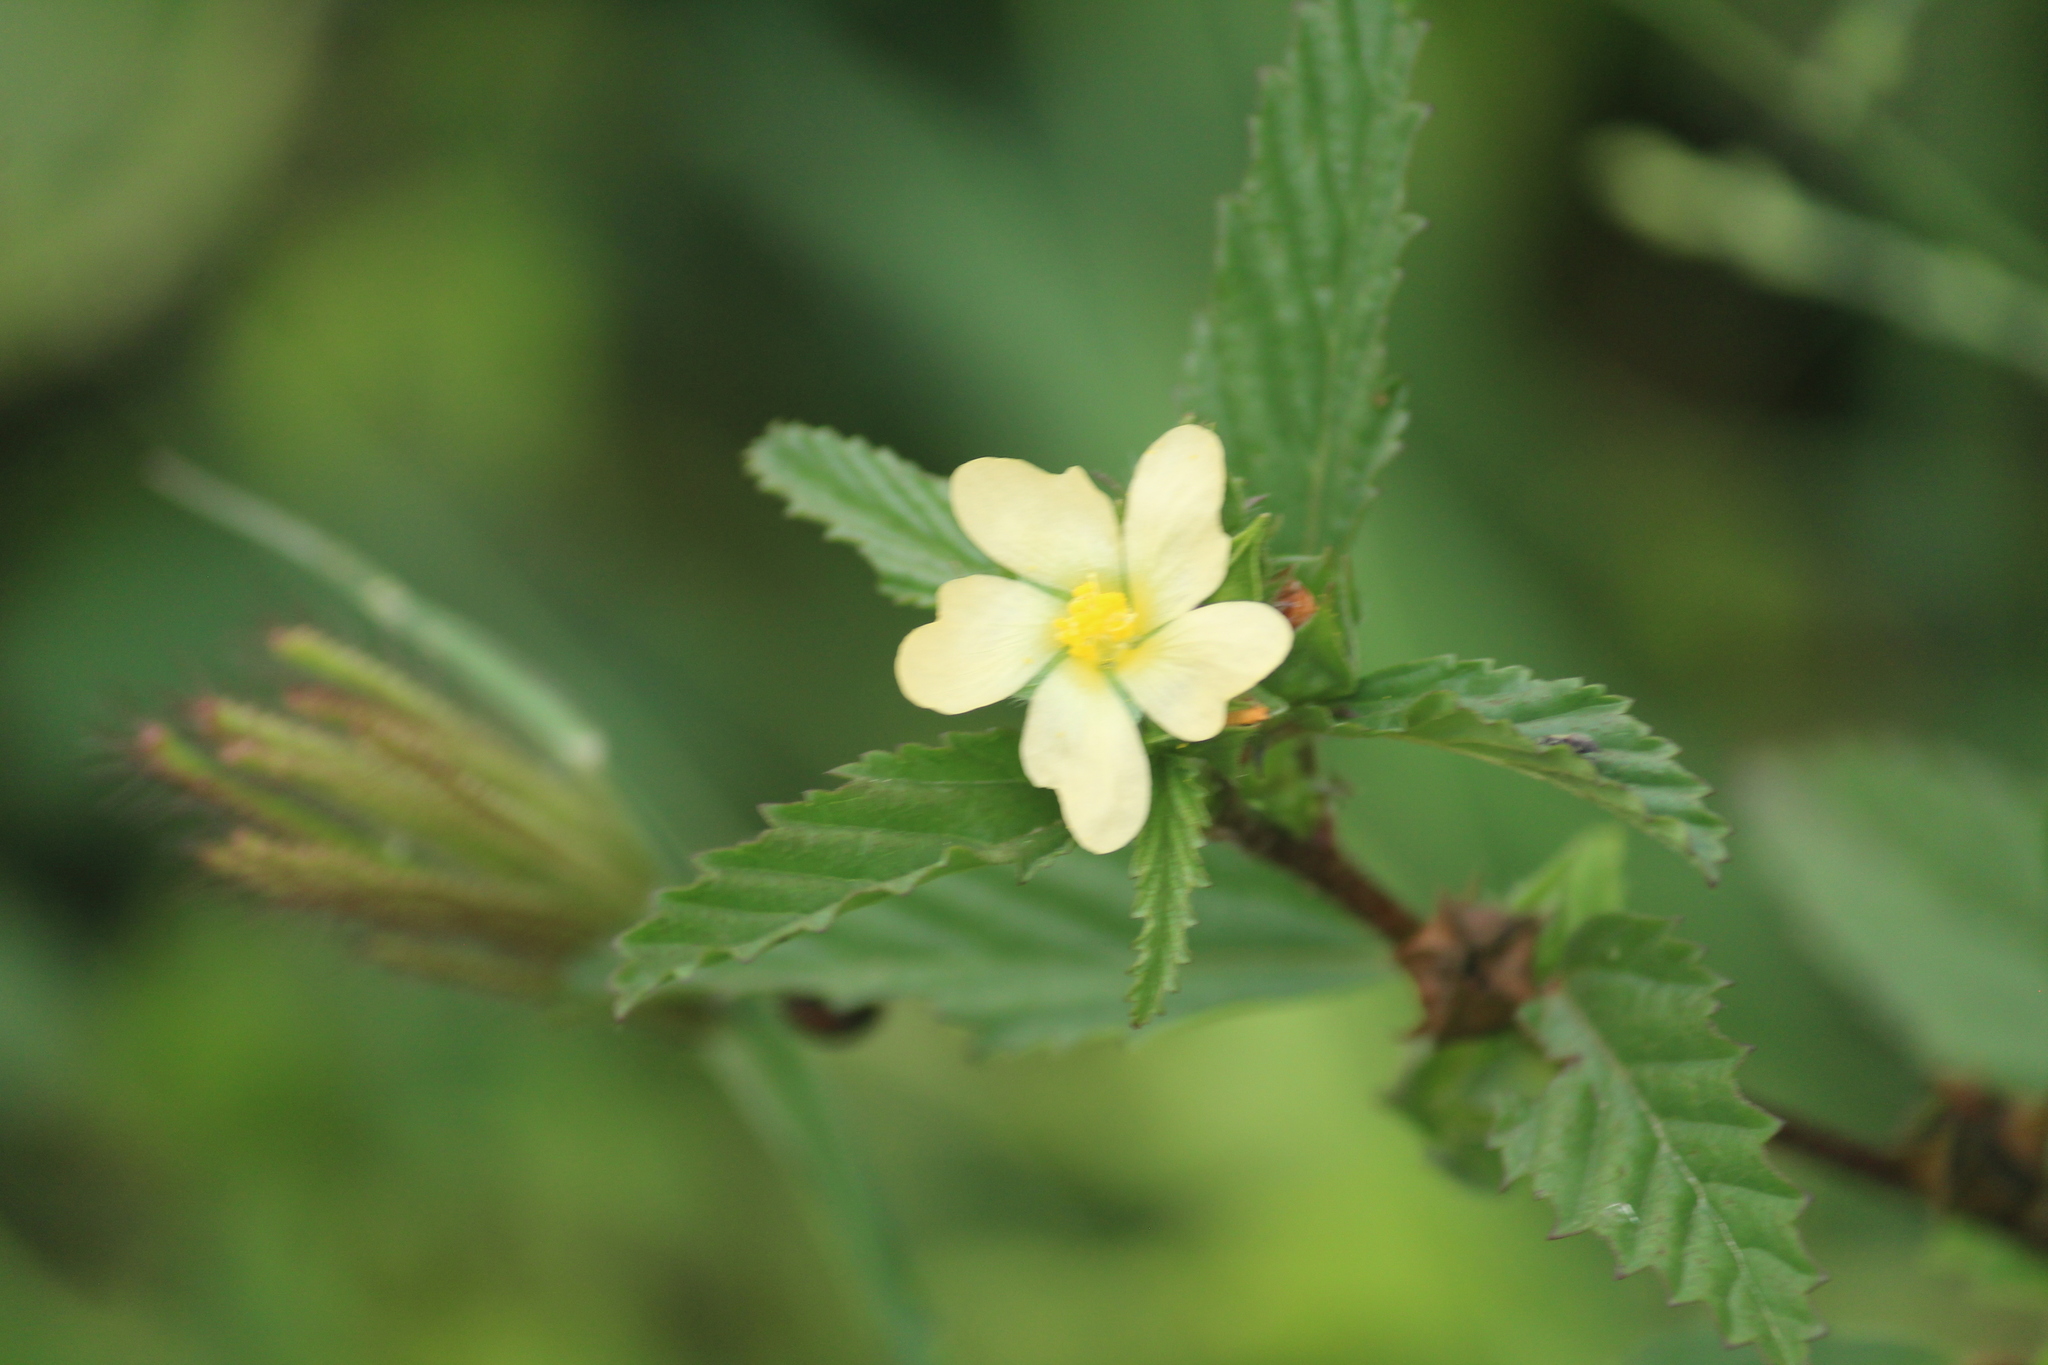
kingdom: Plantae
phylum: Tracheophyta
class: Magnoliopsida
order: Malvales
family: Malvaceae
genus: Malvastrum
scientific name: Malvastrum coromandelianum
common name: Threelobe false mallow
